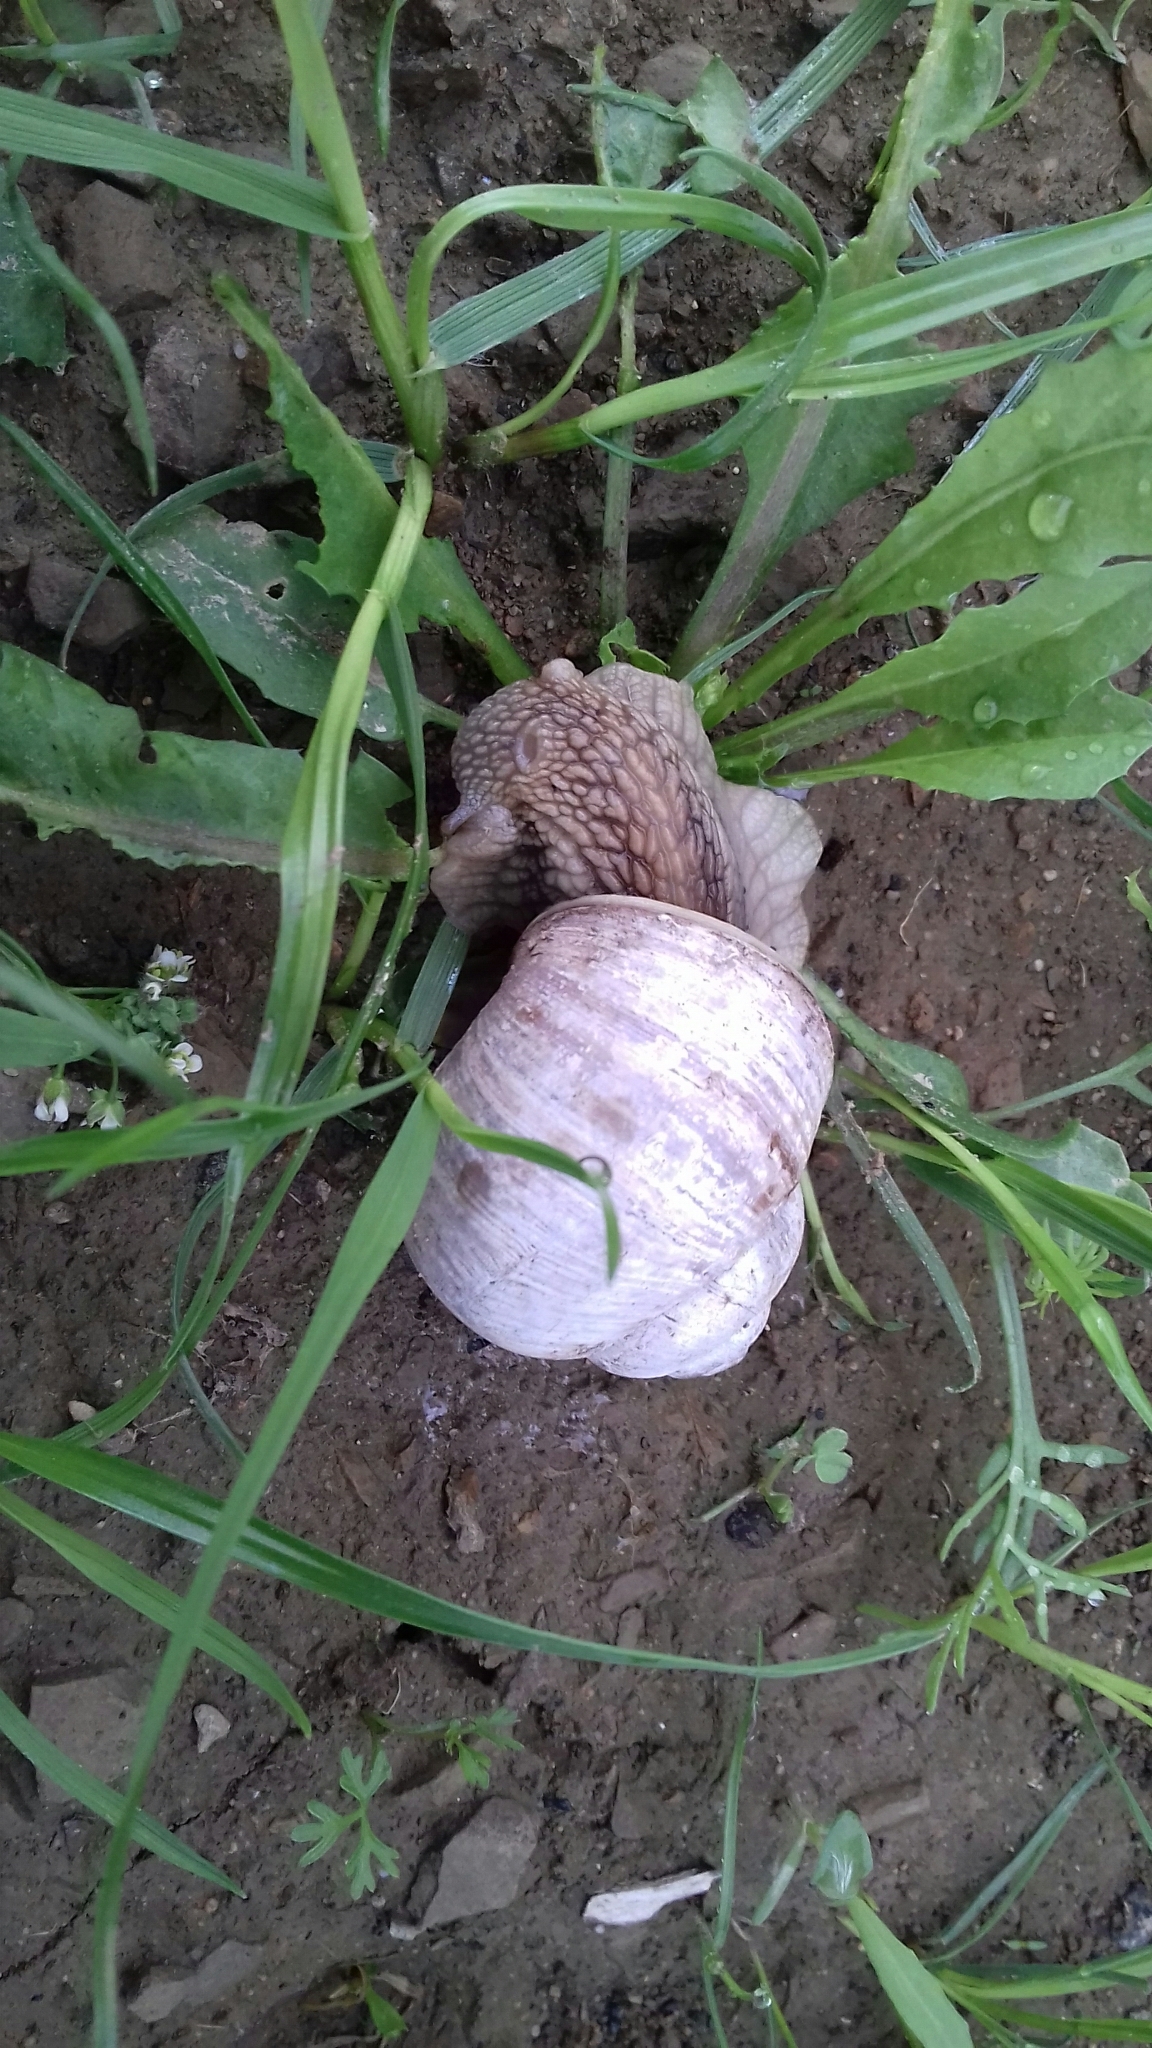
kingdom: Animalia
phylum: Mollusca
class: Gastropoda
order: Stylommatophora
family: Helicidae
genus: Helix
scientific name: Helix pomatia
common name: Roman snail
